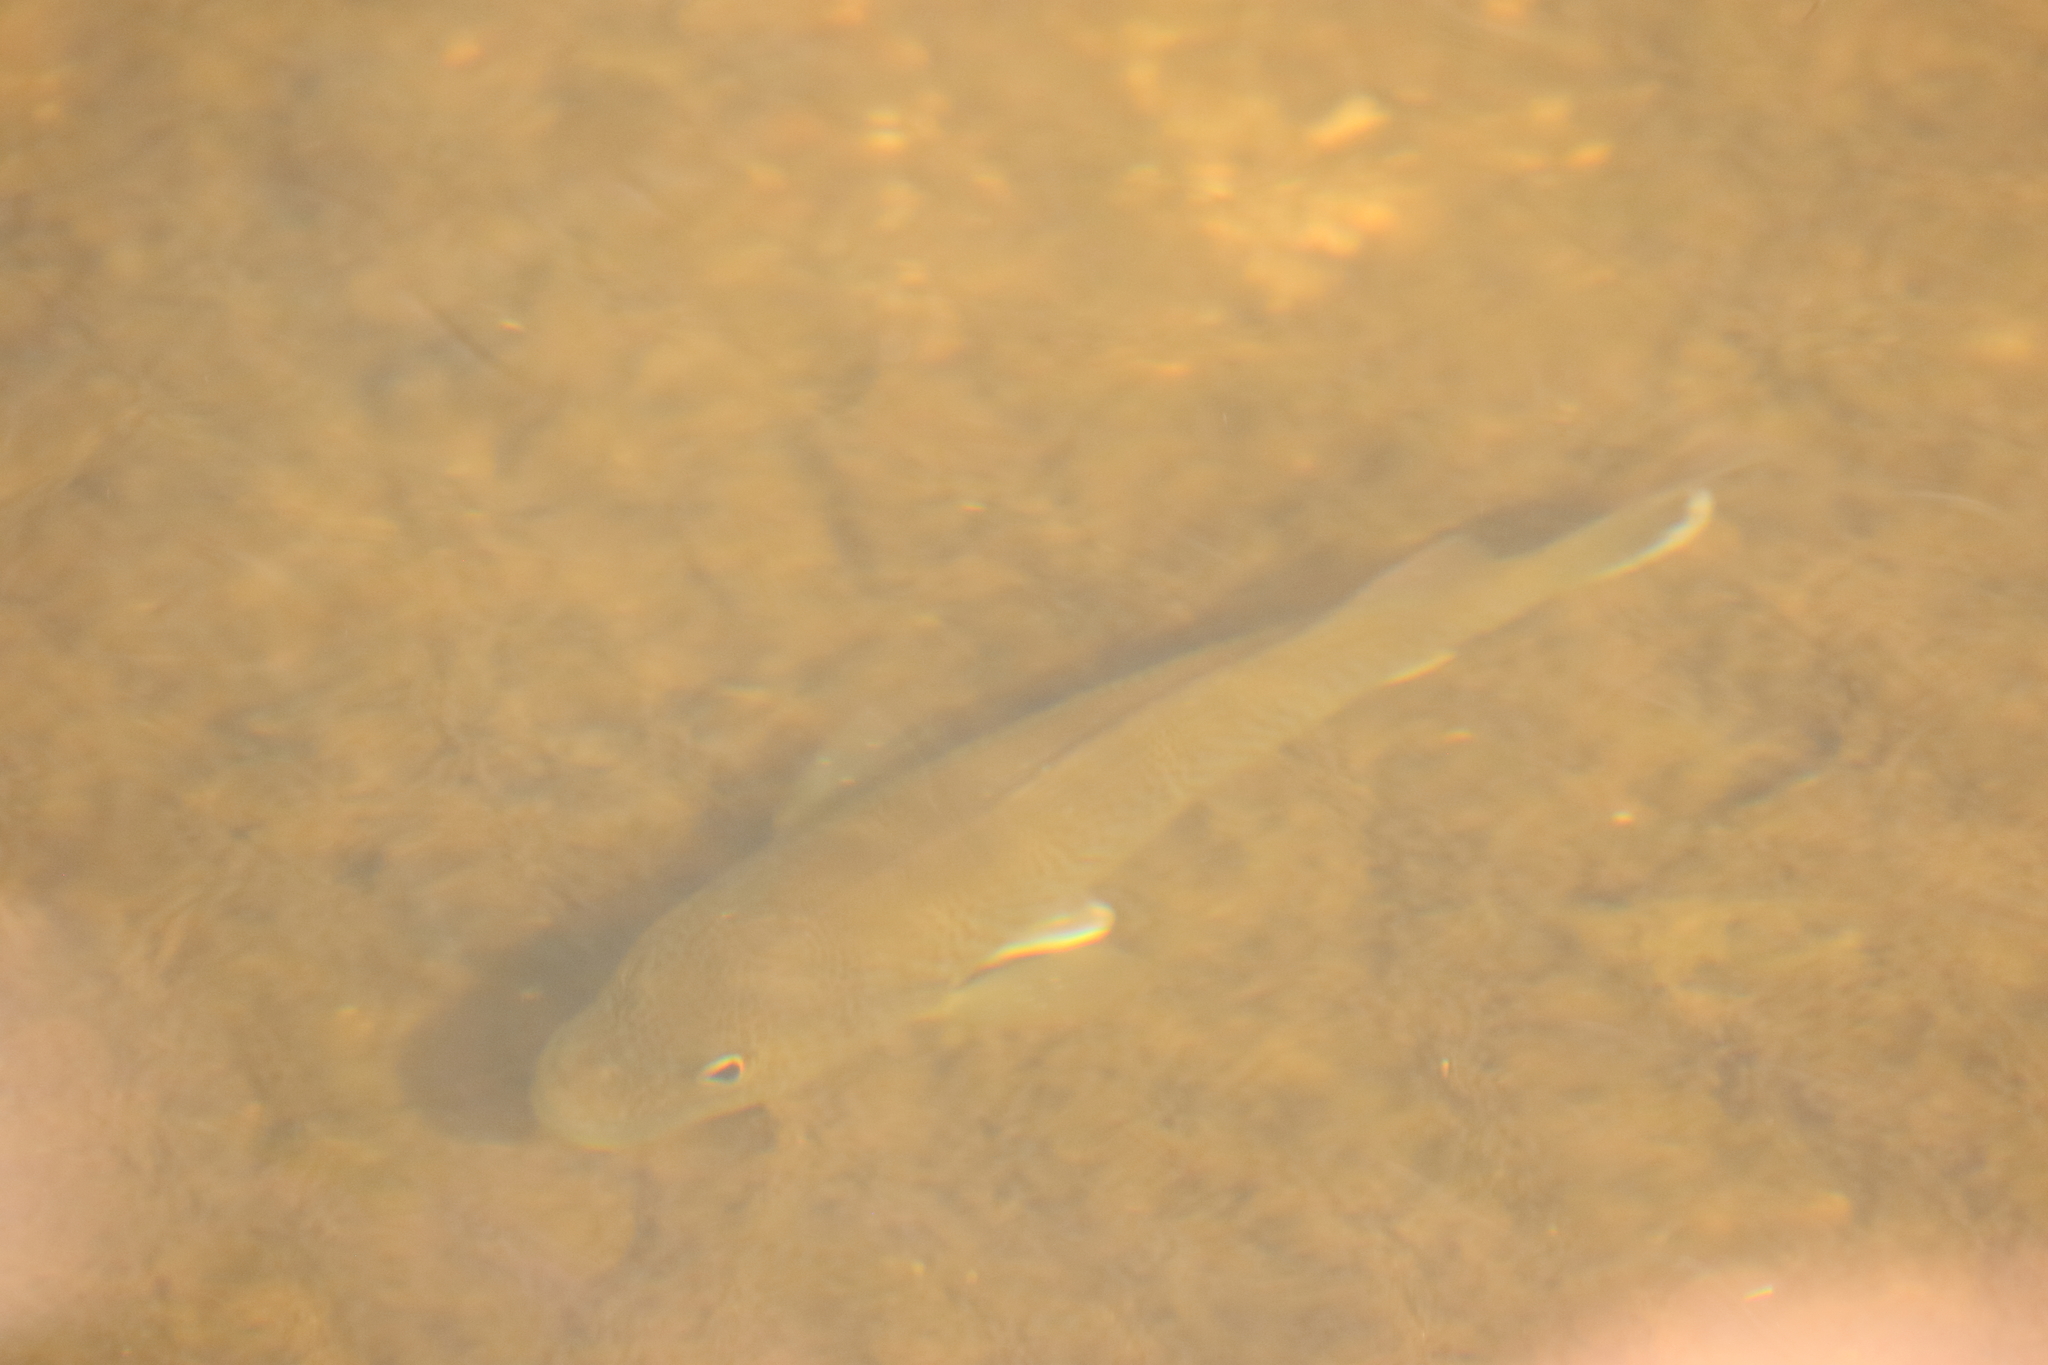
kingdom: Animalia
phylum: Chordata
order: Perciformes
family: Terapontidae
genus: Leiopotherapon
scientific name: Leiopotherapon unicolor
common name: Bobby
